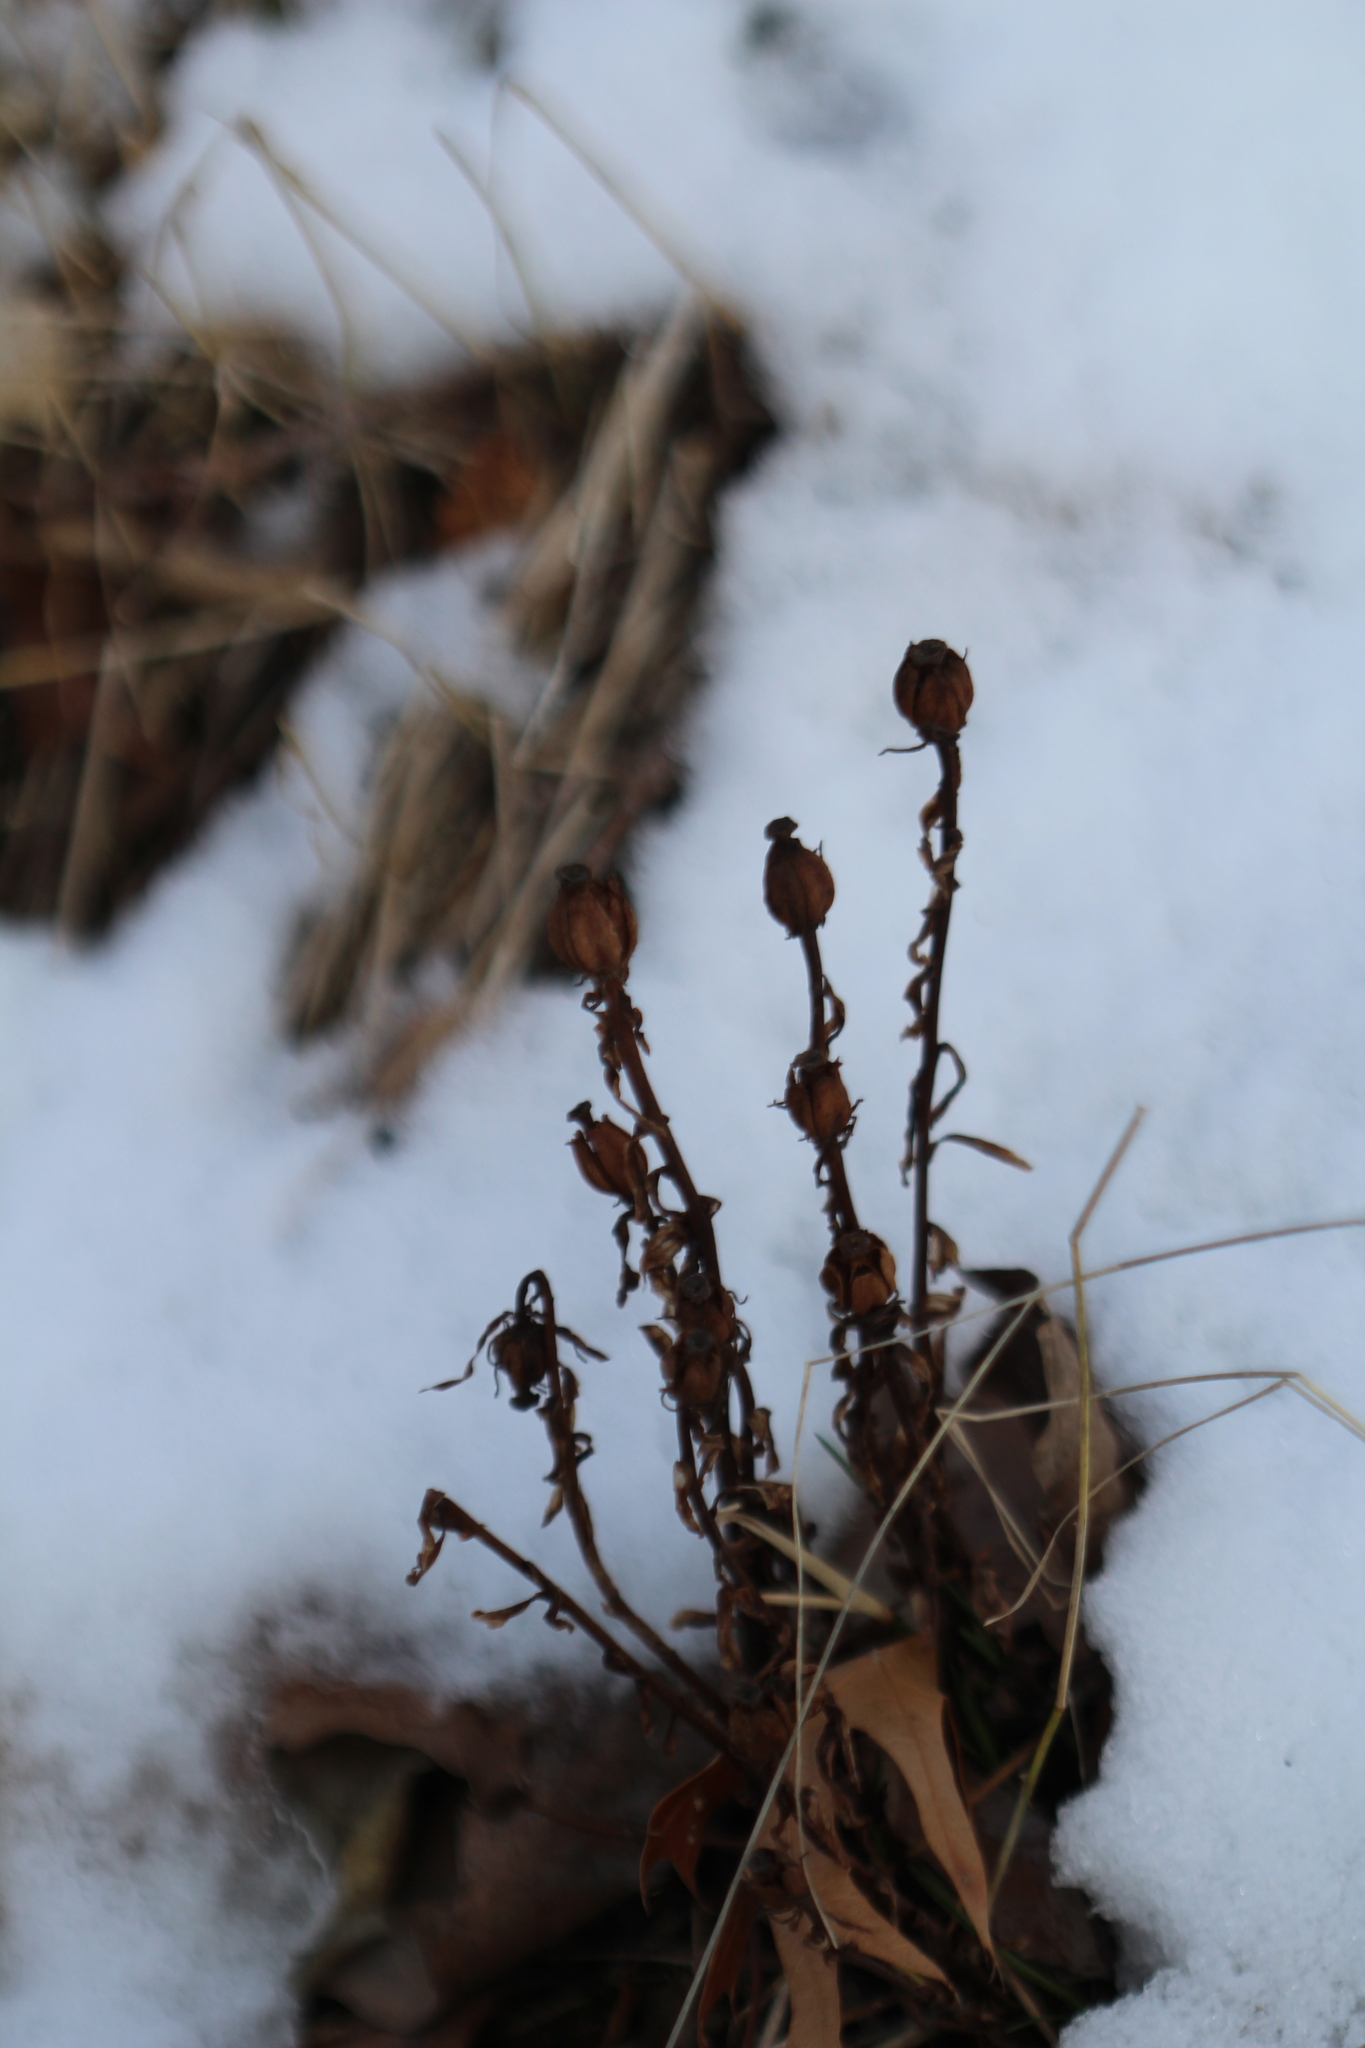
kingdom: Plantae
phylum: Tracheophyta
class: Magnoliopsida
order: Ericales
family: Ericaceae
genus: Monotropa
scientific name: Monotropa uniflora
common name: Convulsion root
